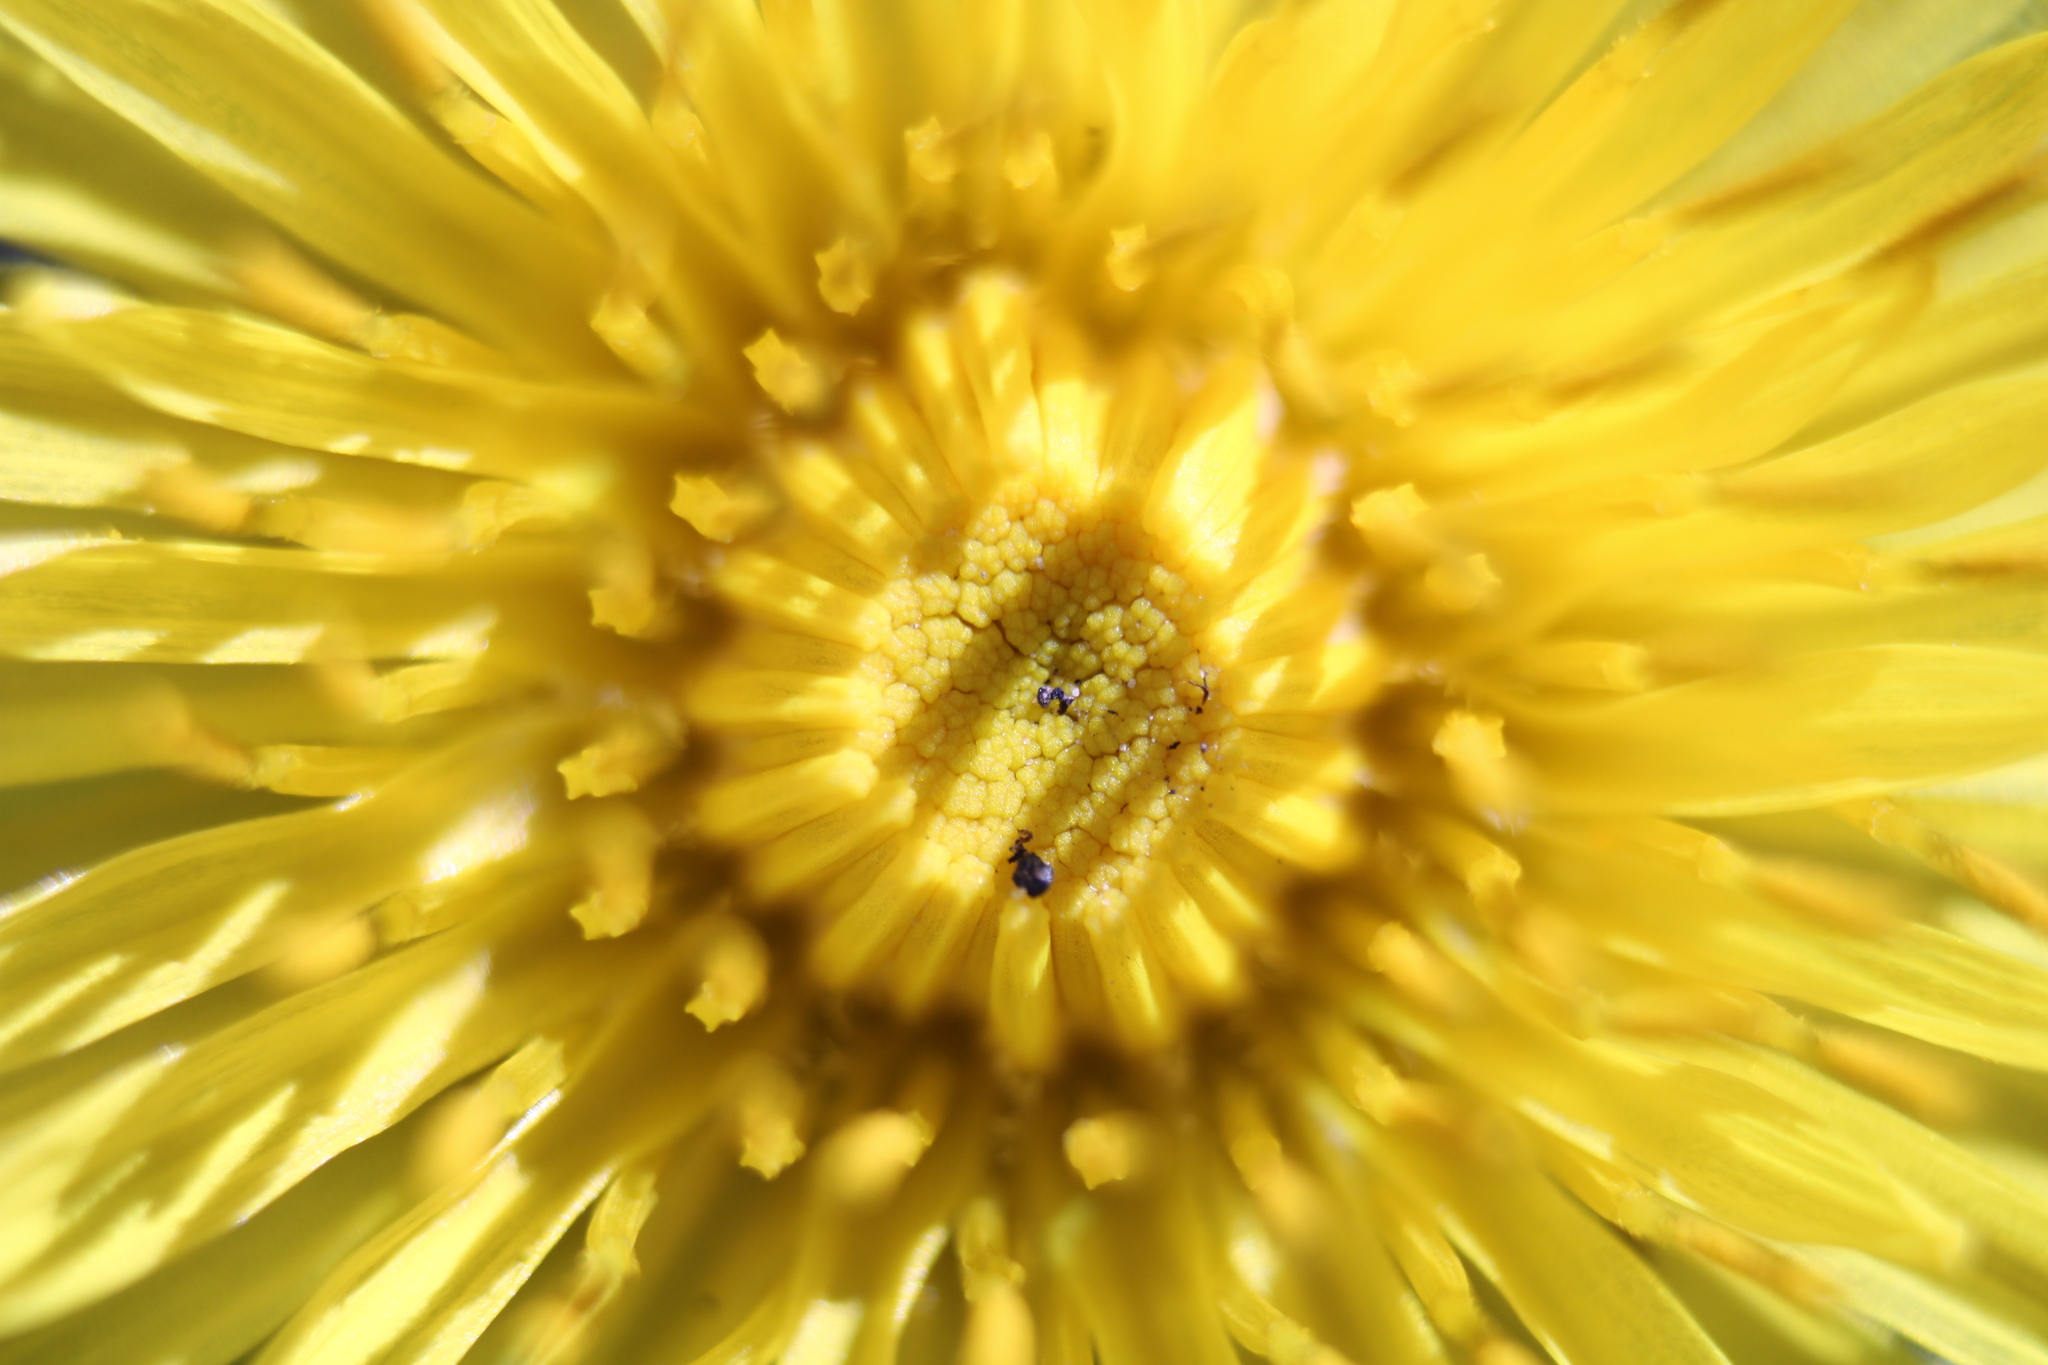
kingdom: Plantae
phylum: Tracheophyta
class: Magnoliopsida
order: Asterales
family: Asteraceae
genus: Taraxacum
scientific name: Taraxacum
